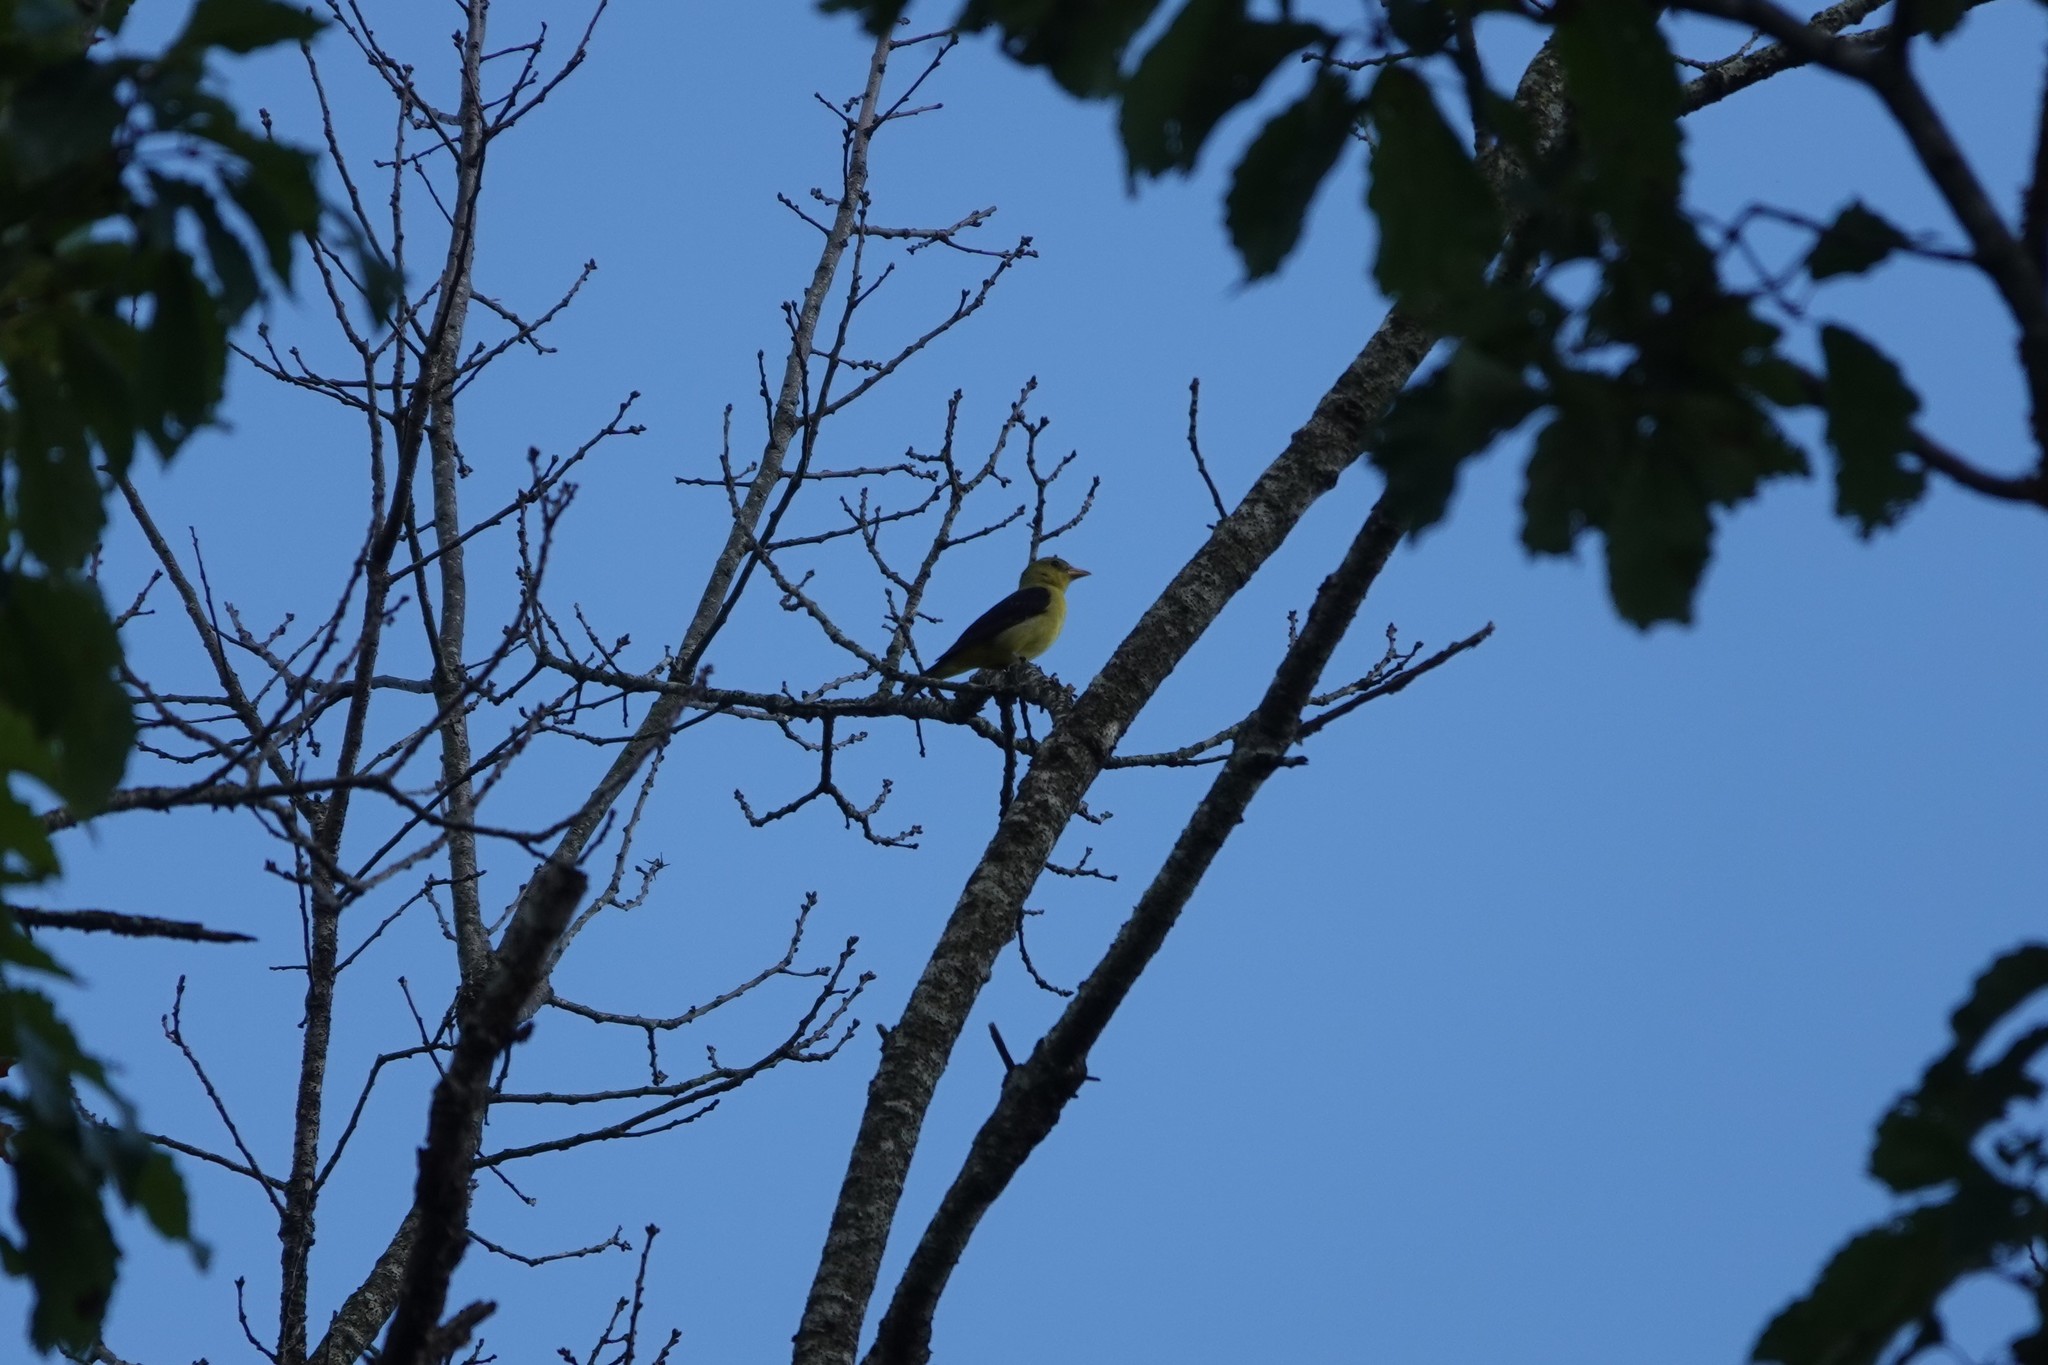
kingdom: Animalia
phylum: Chordata
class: Aves
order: Passeriformes
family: Cardinalidae
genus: Piranga
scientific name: Piranga olivacea
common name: Scarlet tanager
